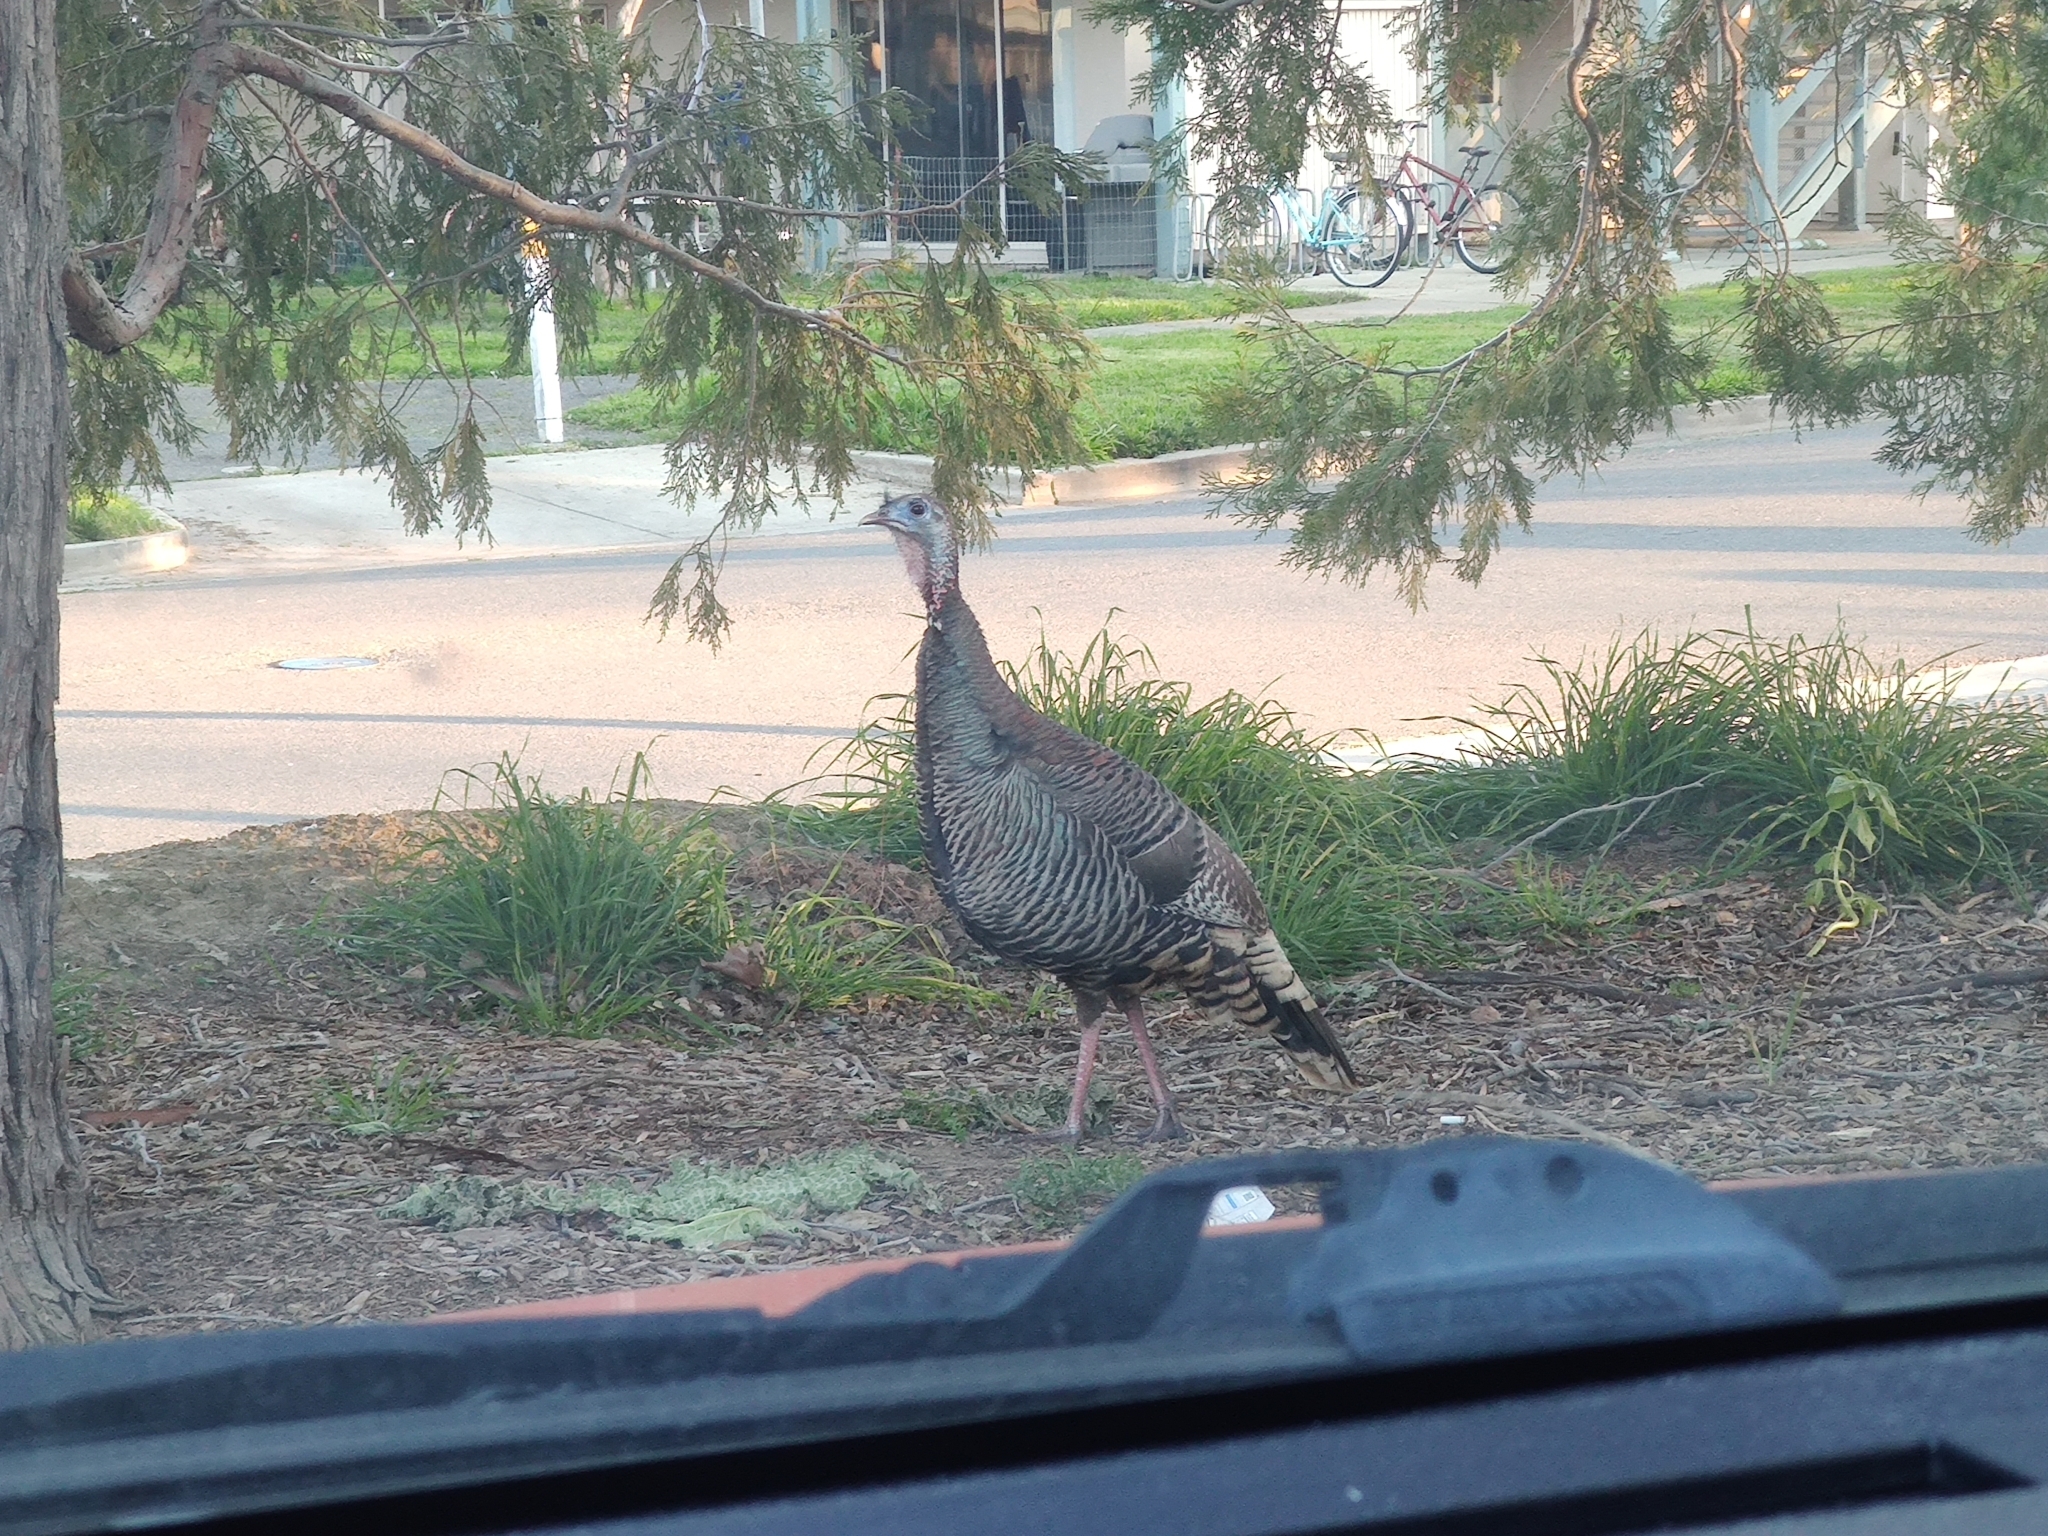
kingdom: Animalia
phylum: Chordata
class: Aves
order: Galliformes
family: Phasianidae
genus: Meleagris
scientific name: Meleagris gallopavo
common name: Wild turkey
